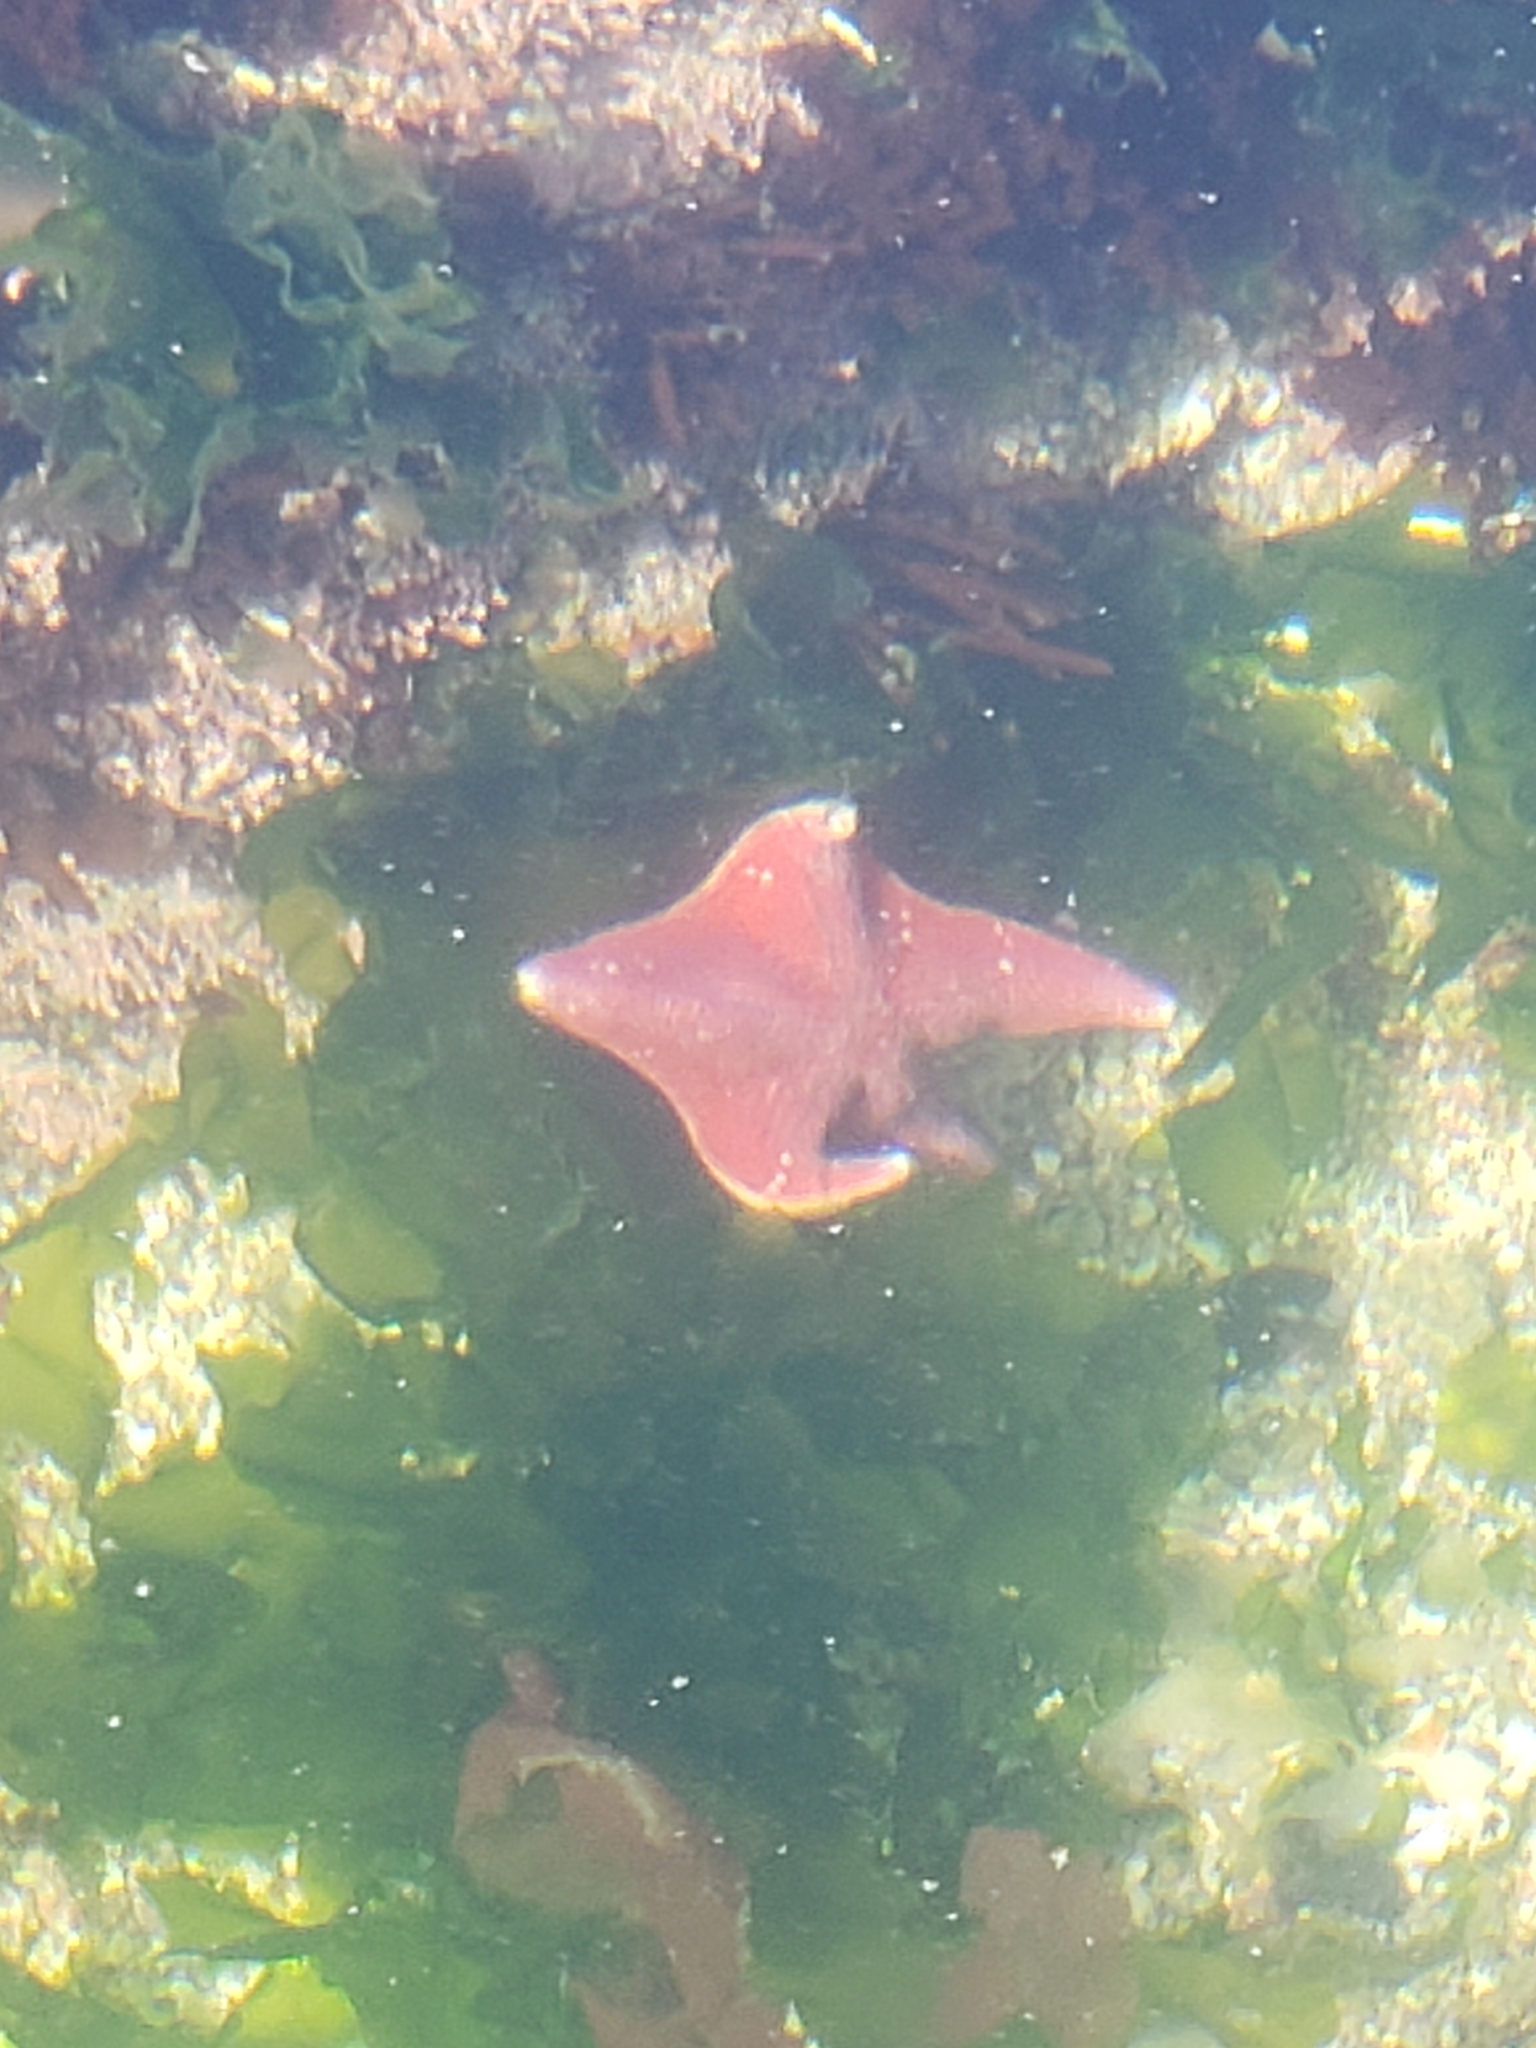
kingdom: Animalia
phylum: Echinodermata
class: Asteroidea
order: Valvatida
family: Asterinidae
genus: Patiria
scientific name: Patiria miniata
